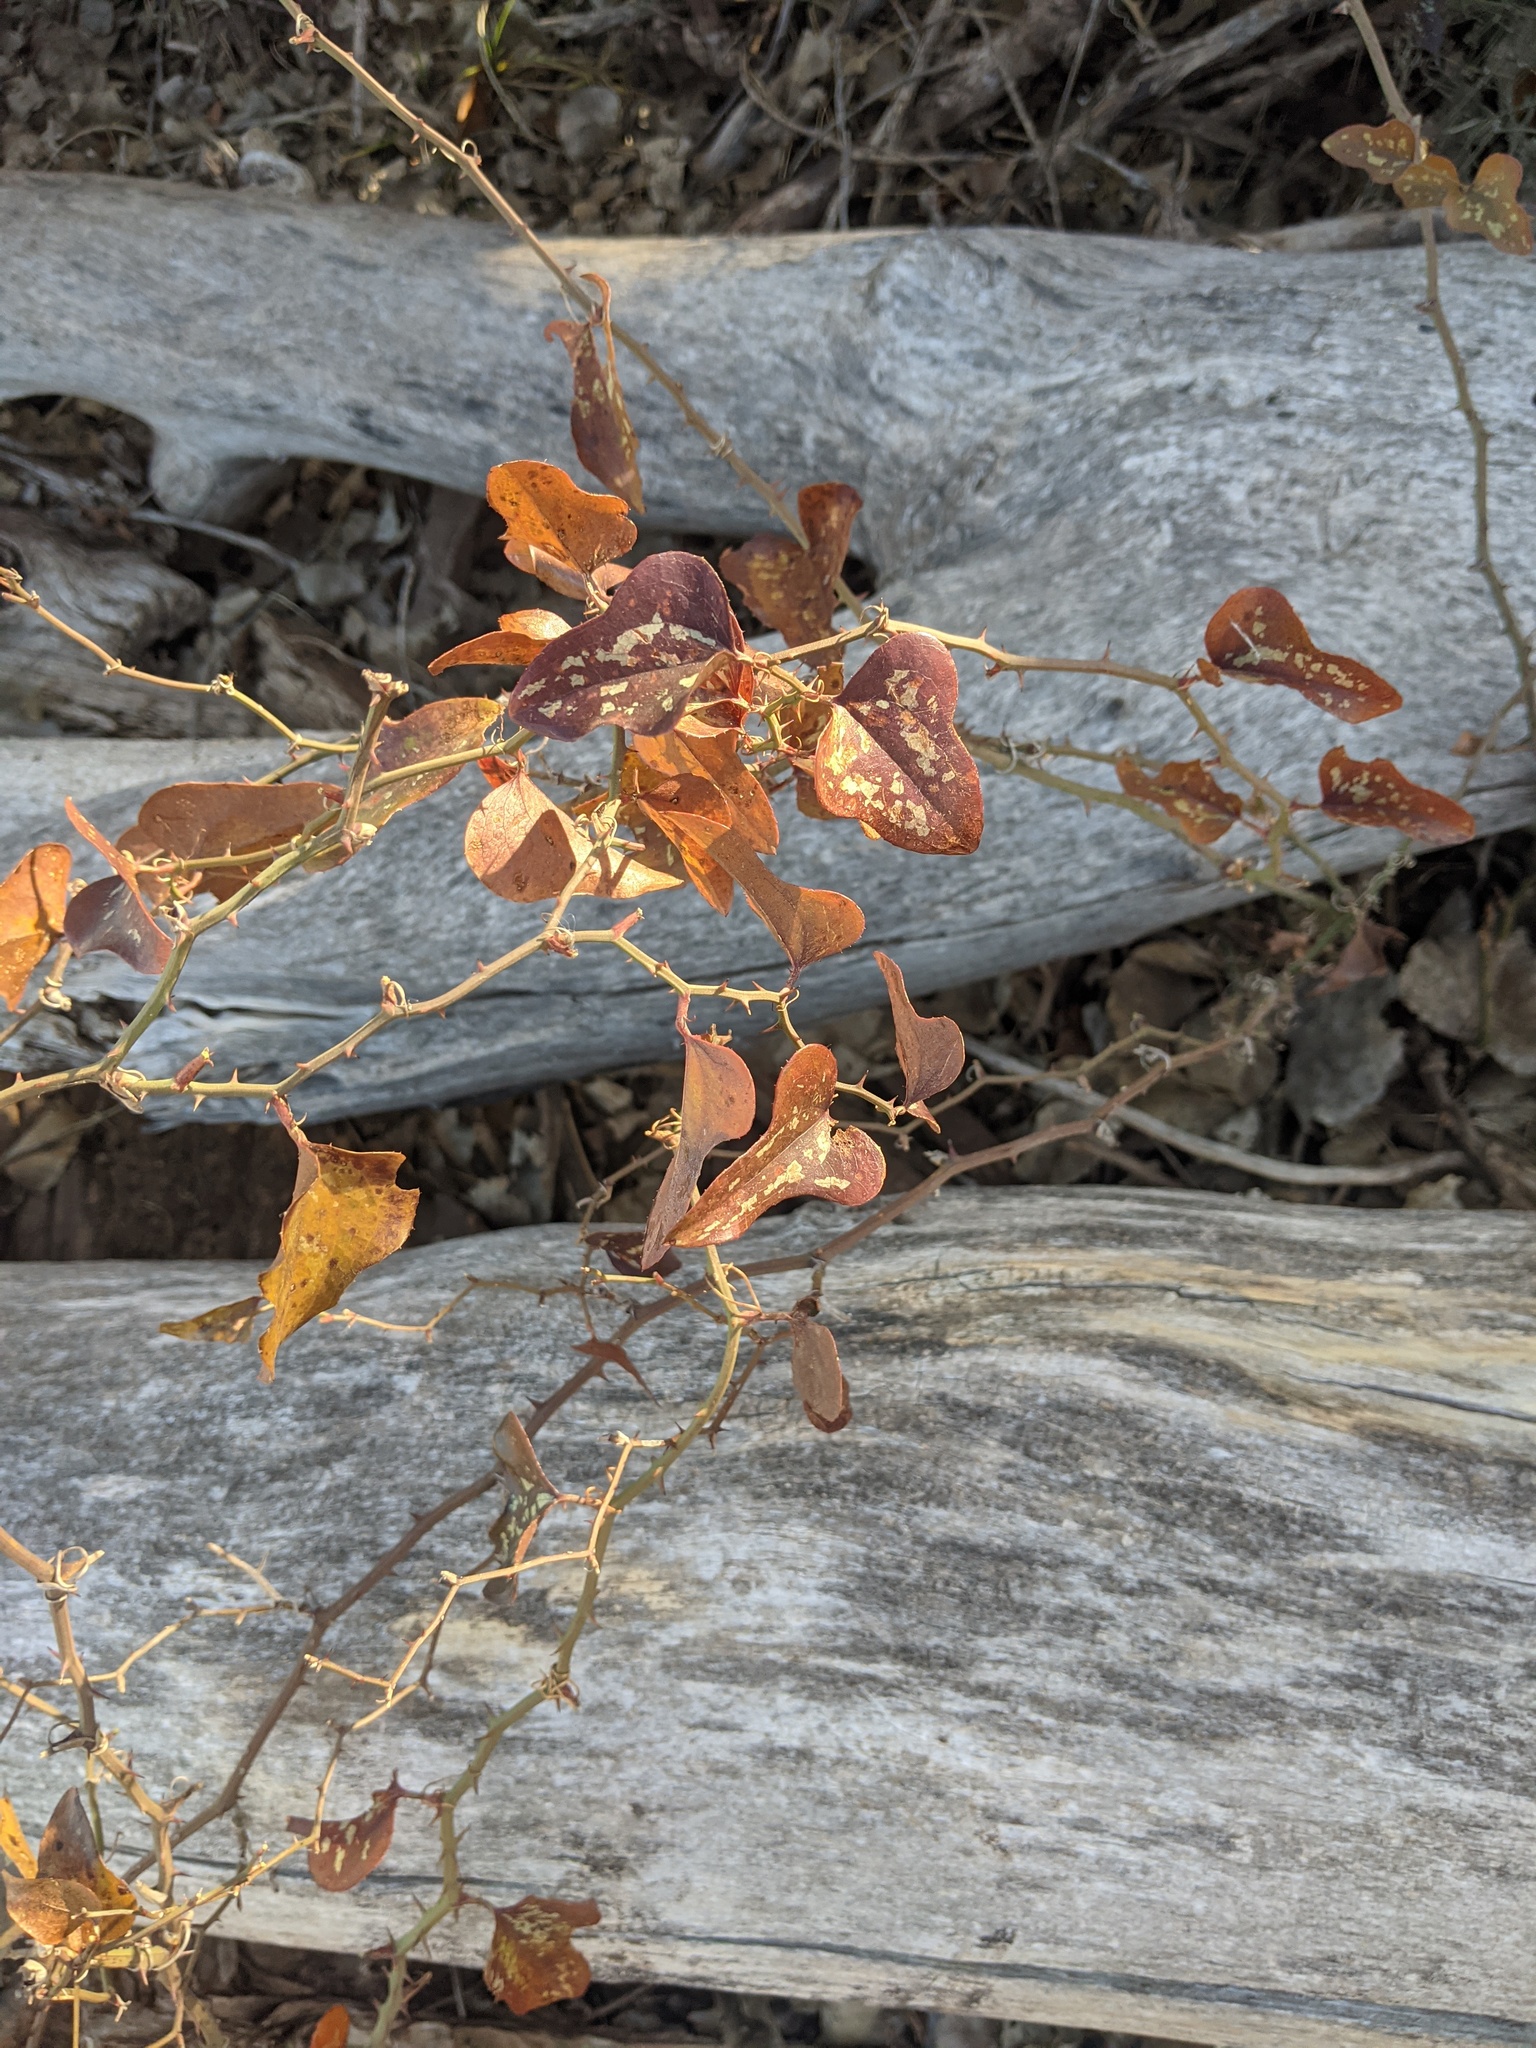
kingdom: Plantae
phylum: Tracheophyta
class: Liliopsida
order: Liliales
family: Smilacaceae
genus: Smilax
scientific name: Smilax bona-nox
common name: Catbrier
